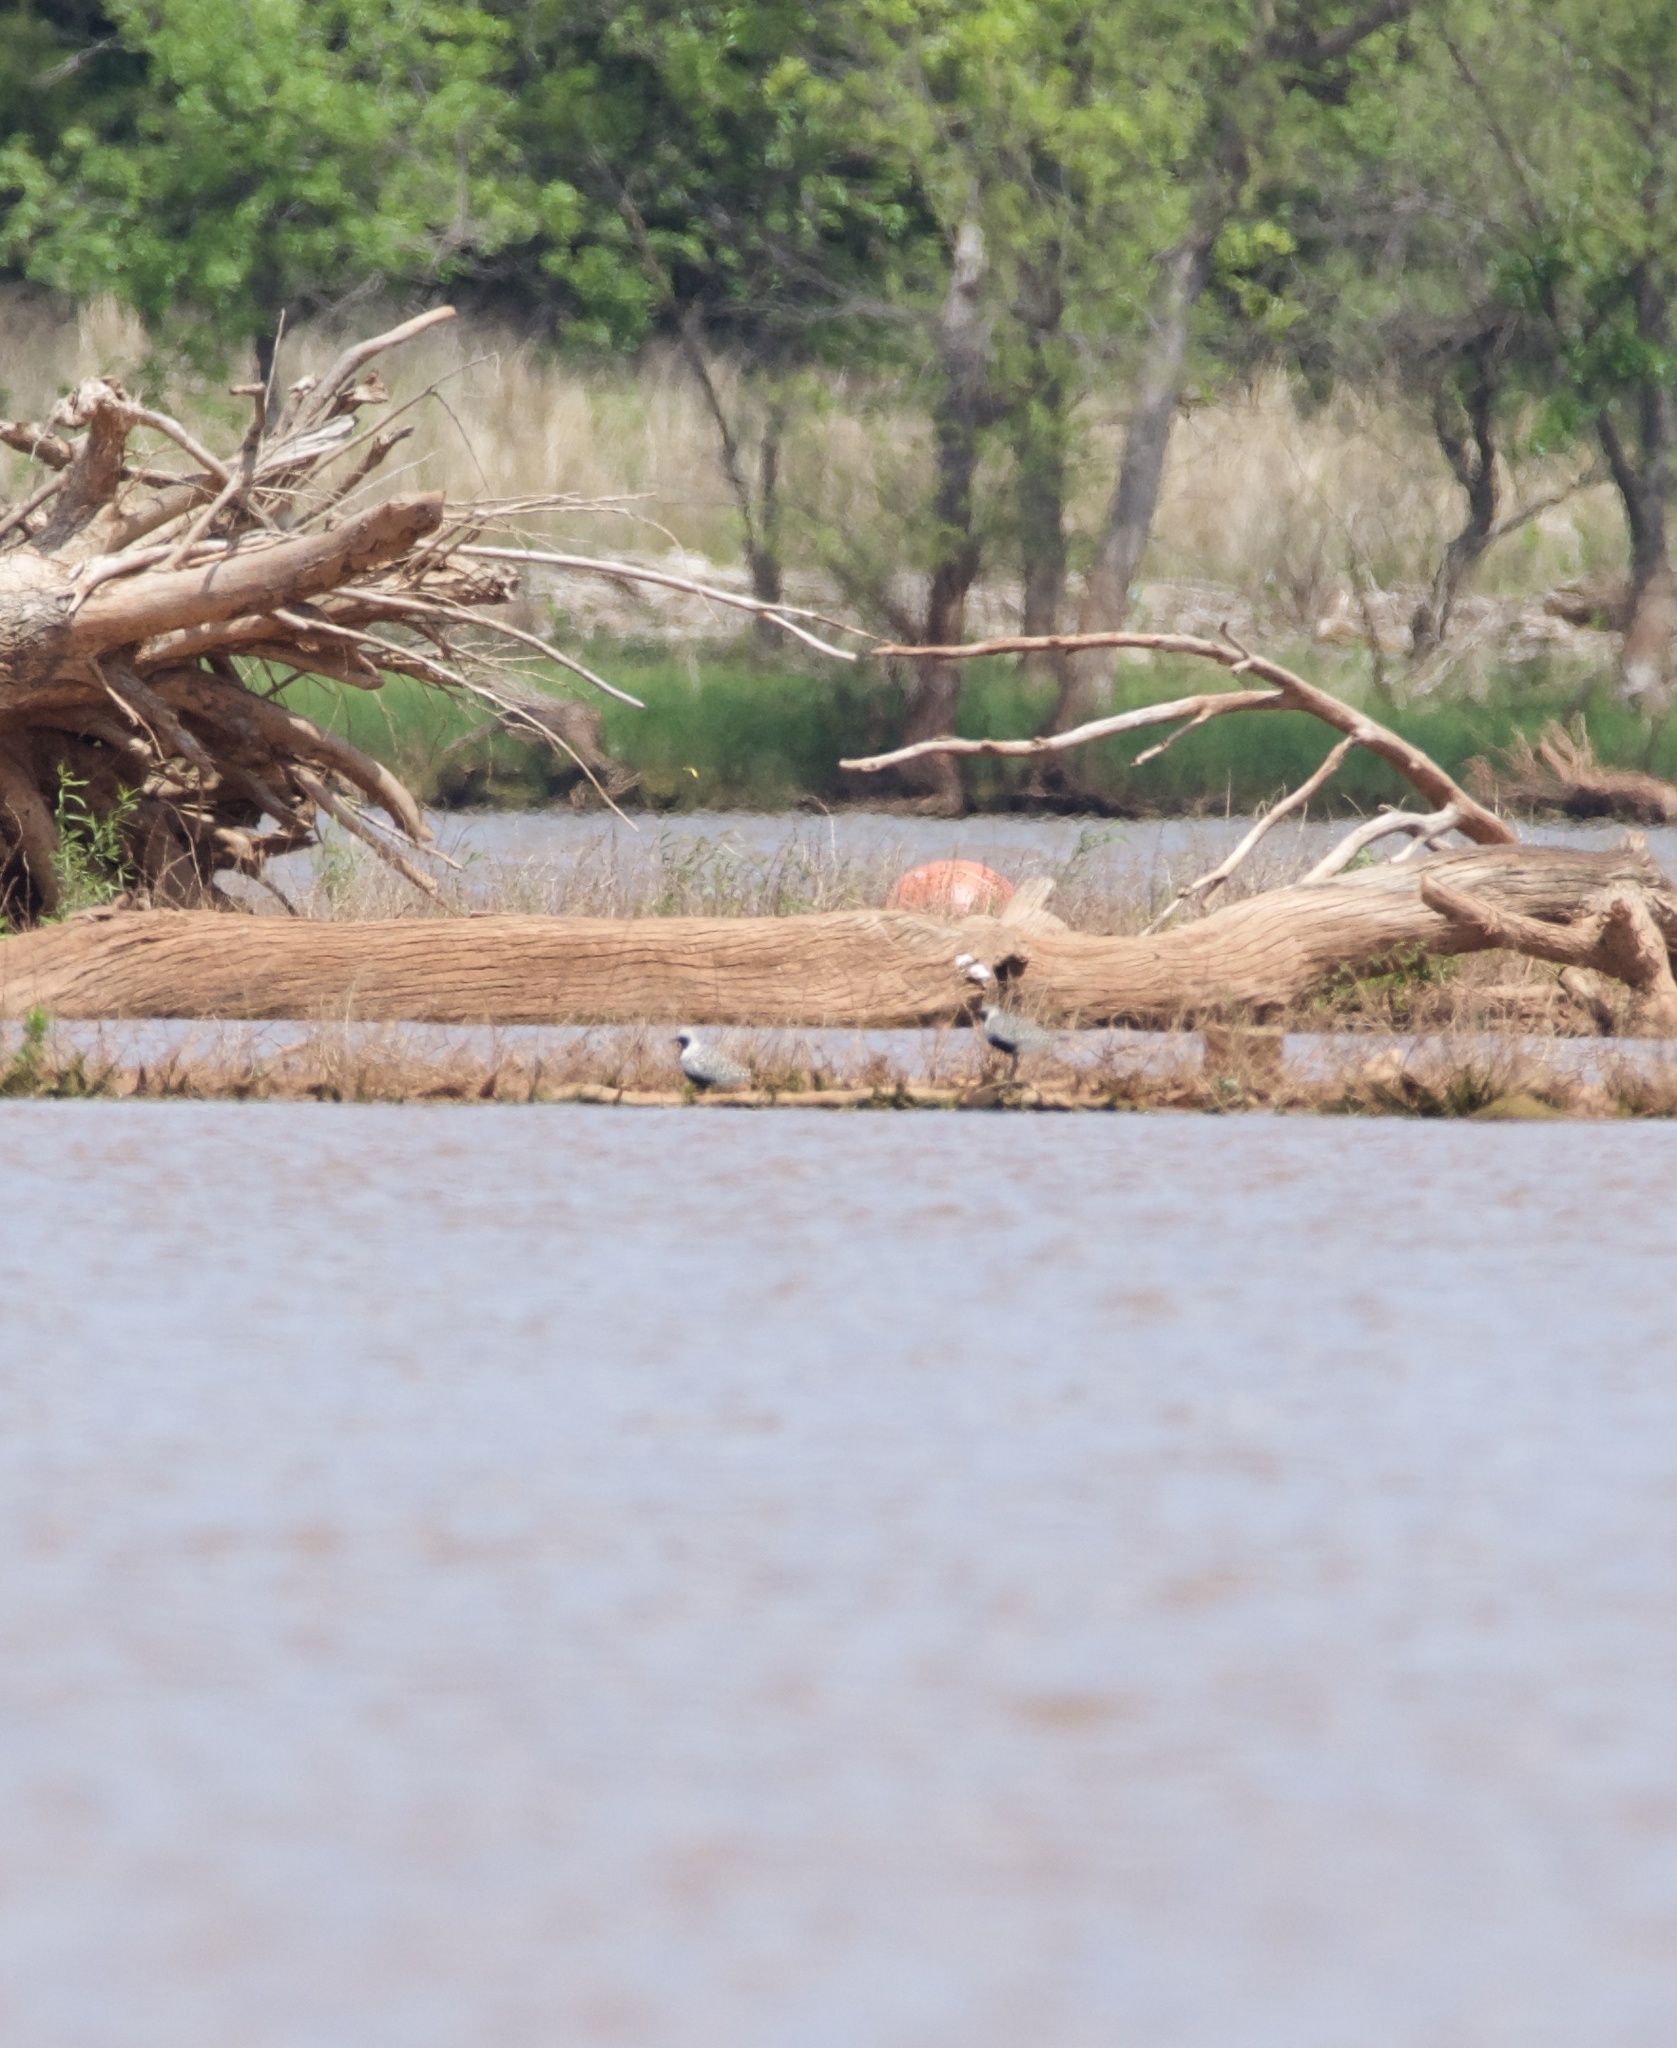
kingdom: Animalia
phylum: Chordata
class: Aves
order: Charadriiformes
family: Charadriidae
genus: Pluvialis
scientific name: Pluvialis squatarola
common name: Grey plover
